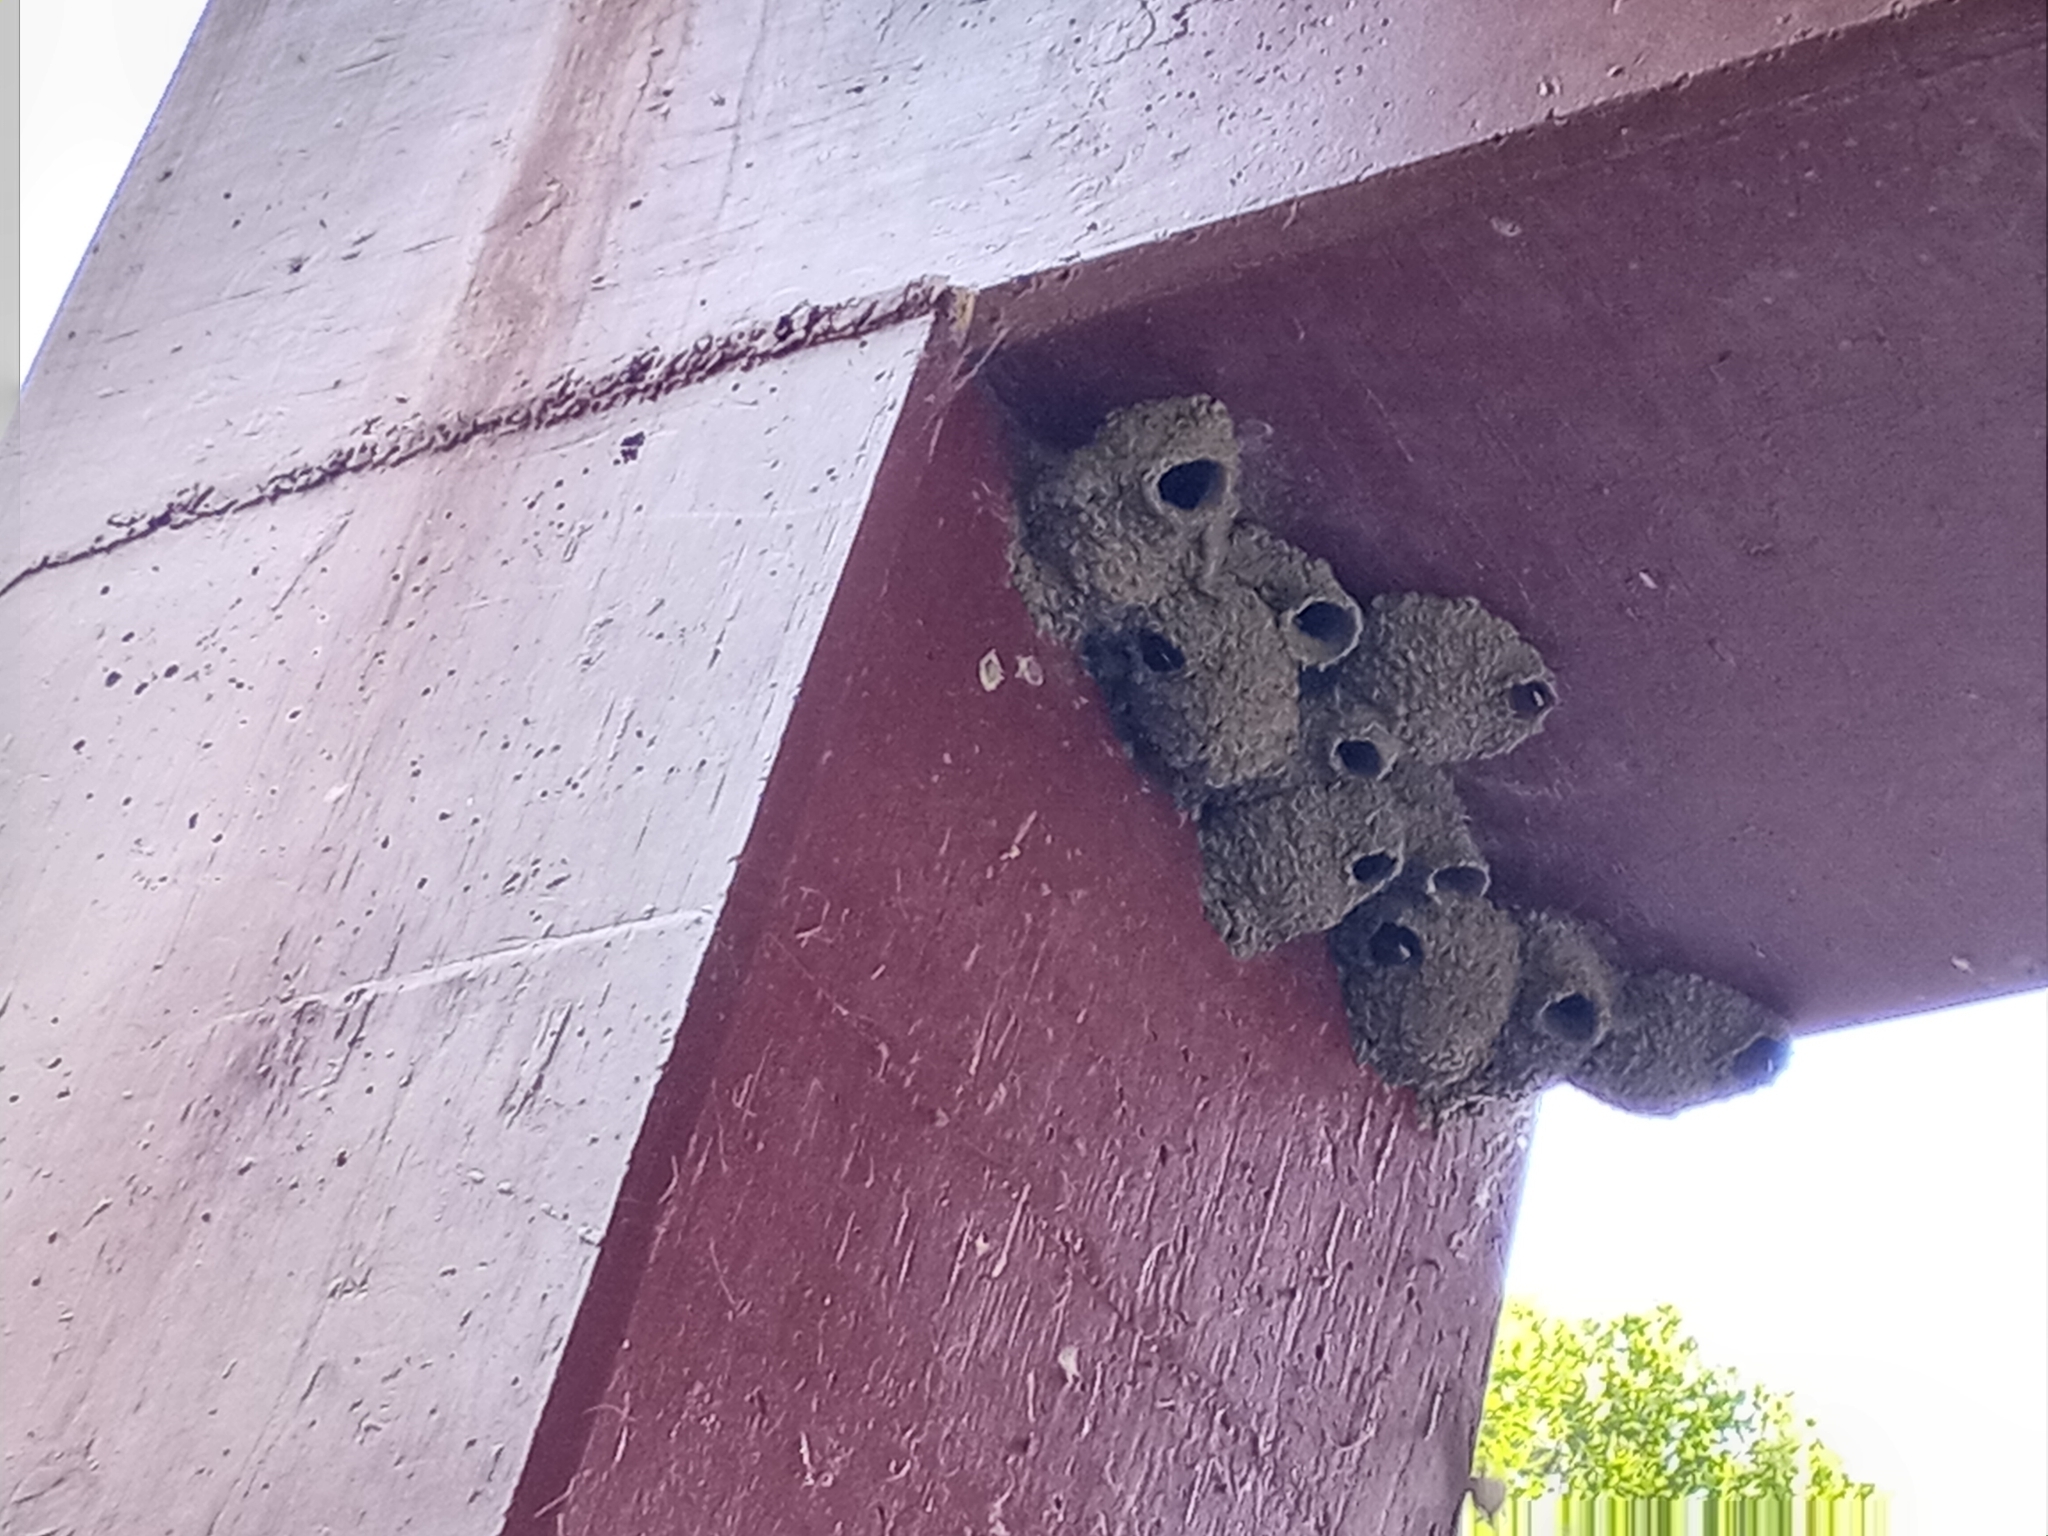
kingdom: Animalia
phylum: Chordata
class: Aves
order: Passeriformes
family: Hirundinidae
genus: Petrochelidon
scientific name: Petrochelidon pyrrhonota
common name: American cliff swallow
